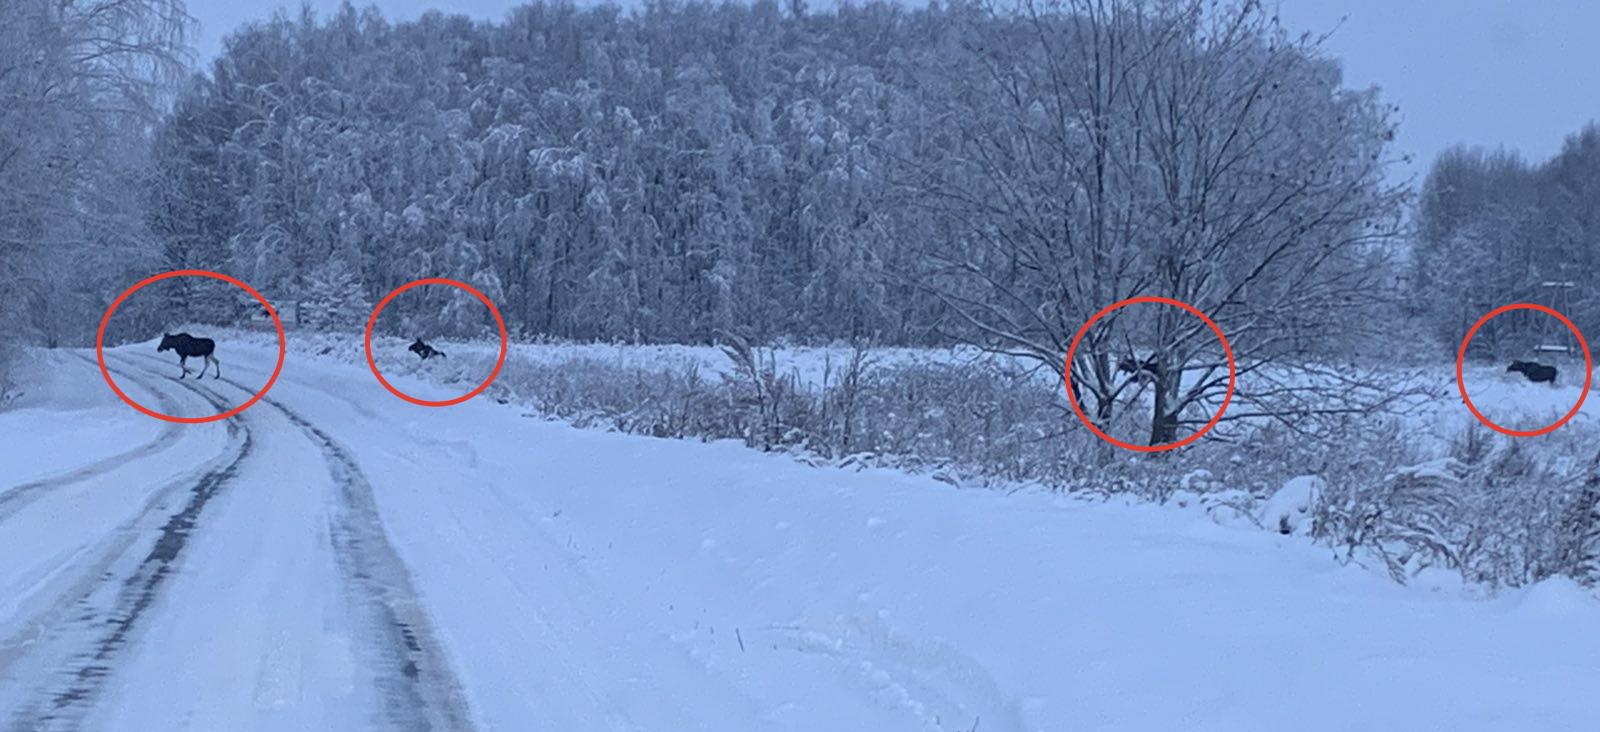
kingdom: Animalia
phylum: Chordata
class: Mammalia
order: Artiodactyla
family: Cervidae
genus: Alces
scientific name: Alces alces
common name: Moose
